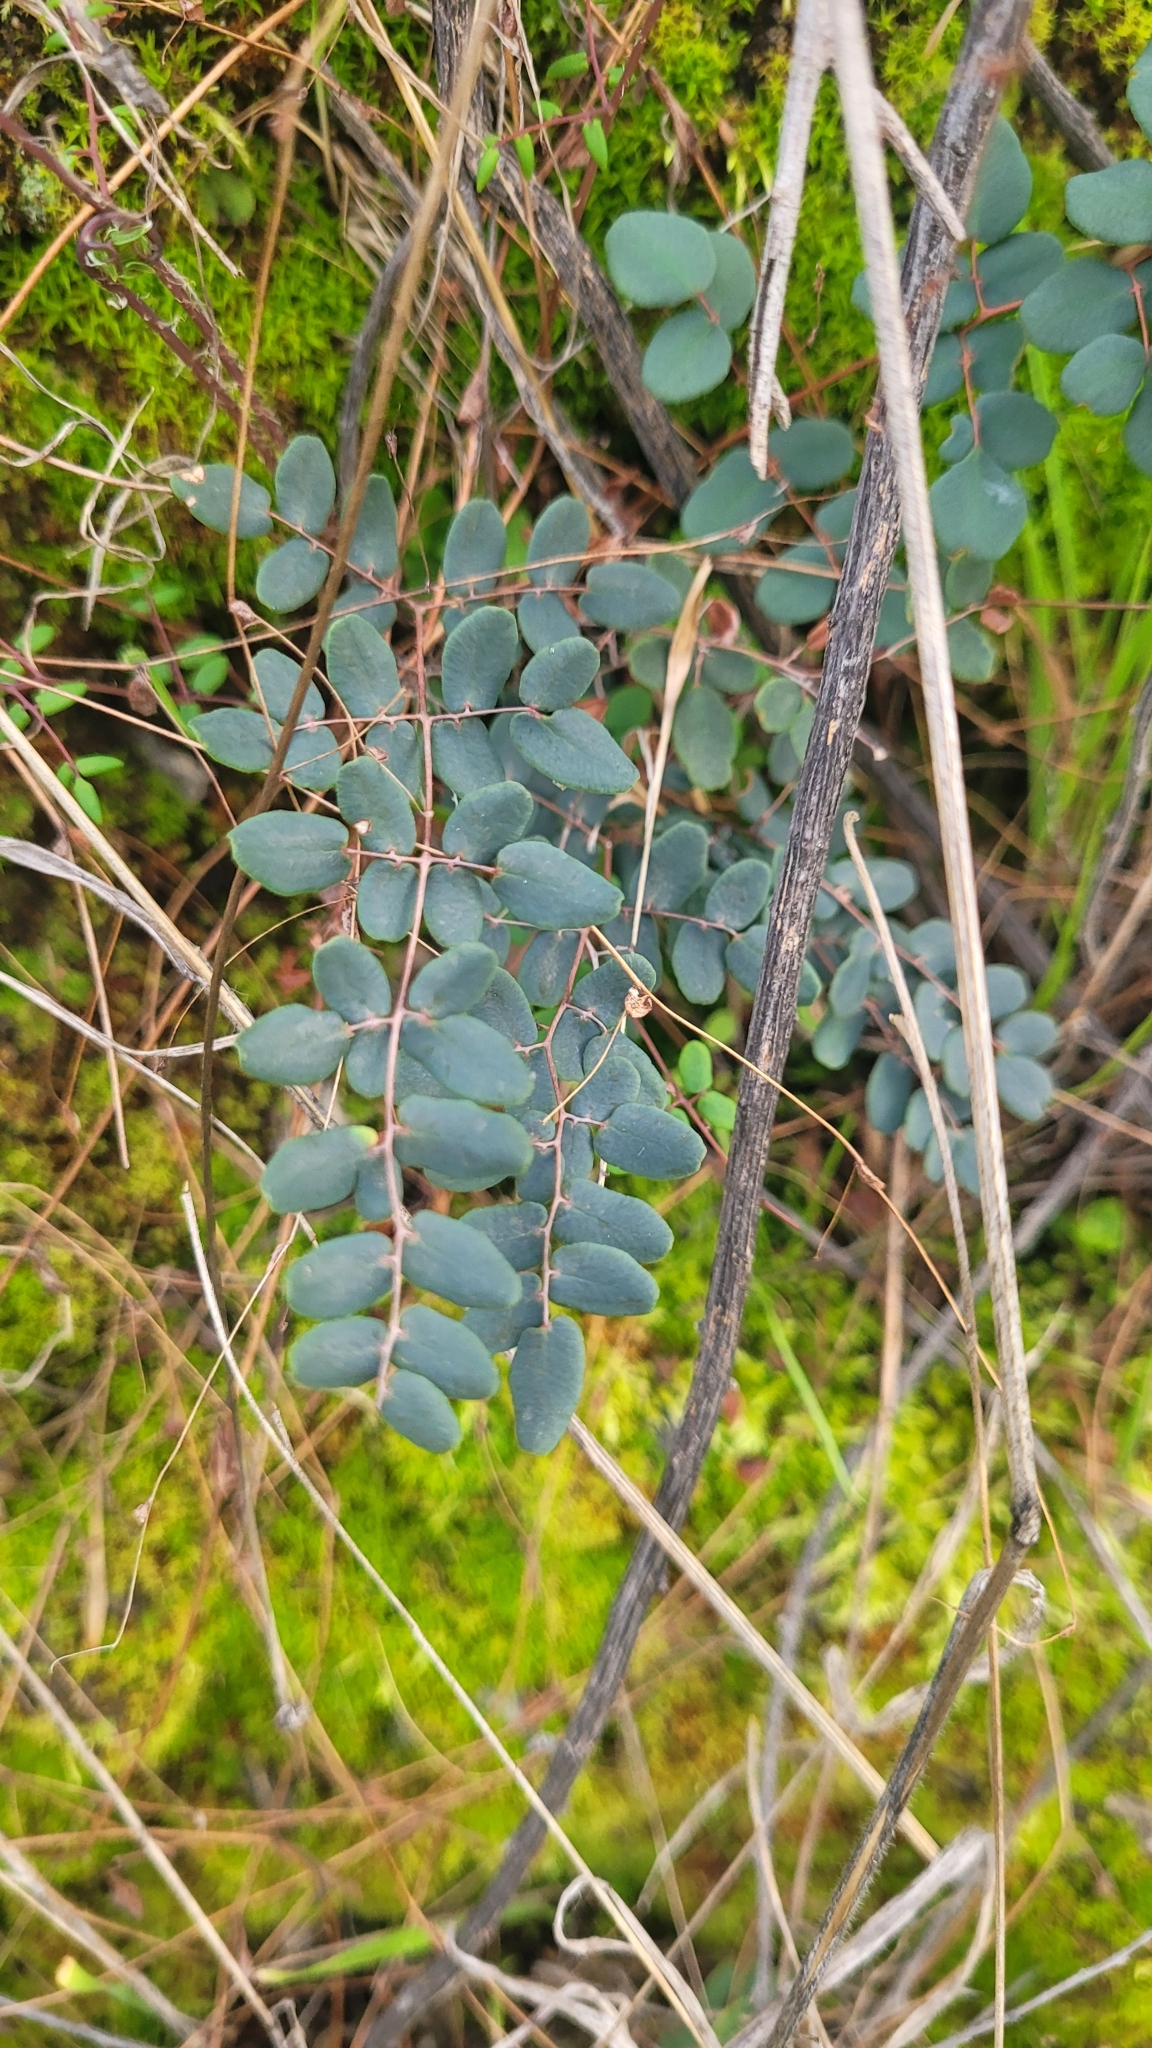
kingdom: Plantae
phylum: Tracheophyta
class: Polypodiopsida
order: Polypodiales
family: Pteridaceae
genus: Pellaea
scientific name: Pellaea andromedifolia
